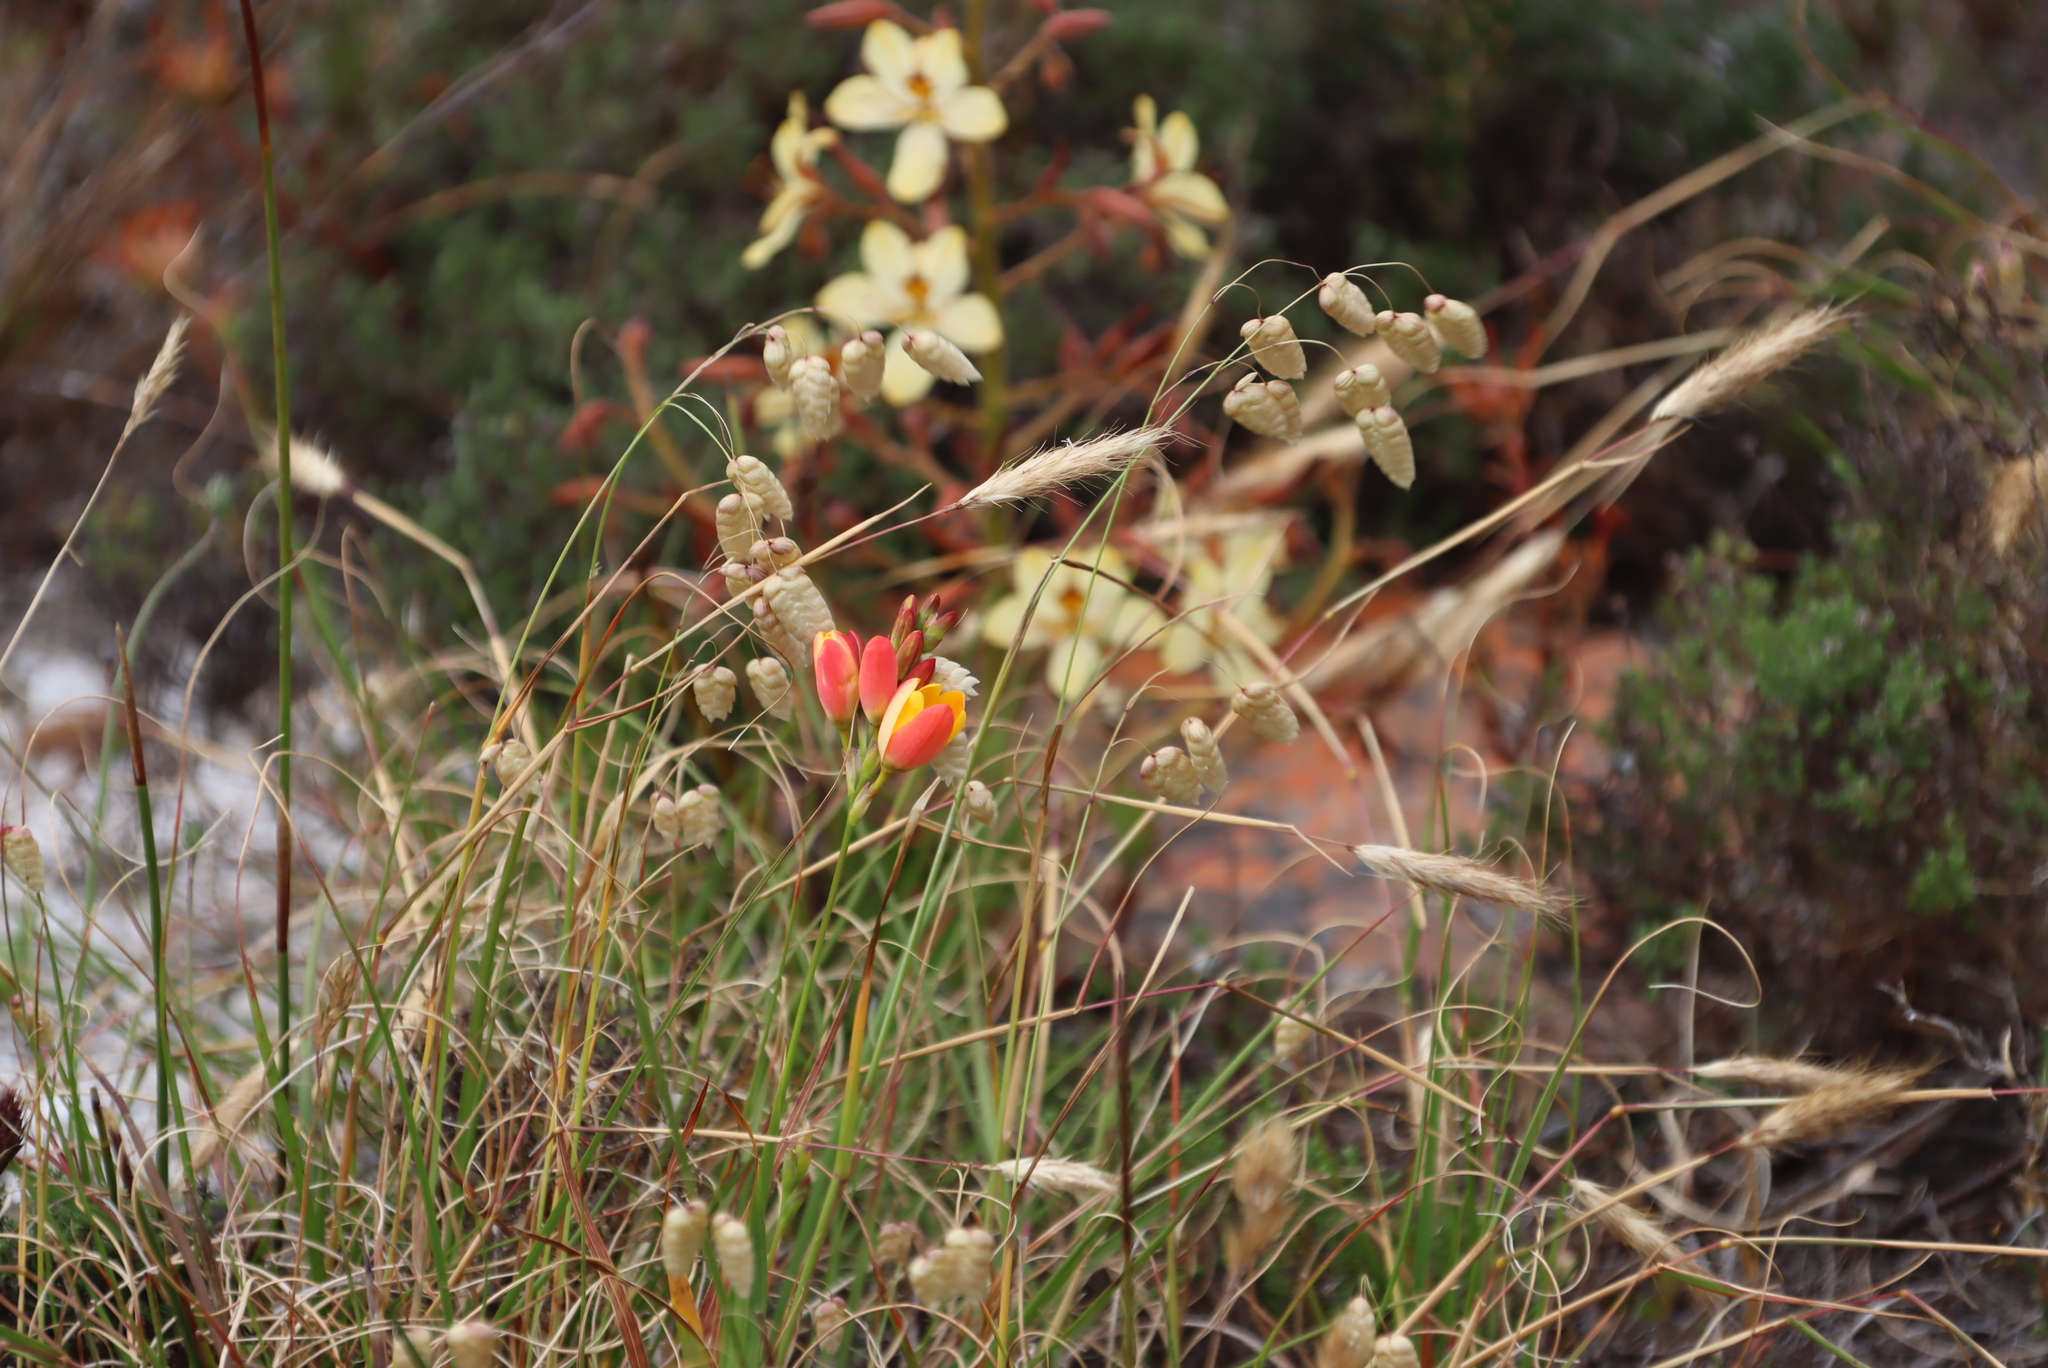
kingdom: Plantae
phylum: Tracheophyta
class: Liliopsida
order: Asparagales
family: Iridaceae
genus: Ixia
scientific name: Ixia dubia
